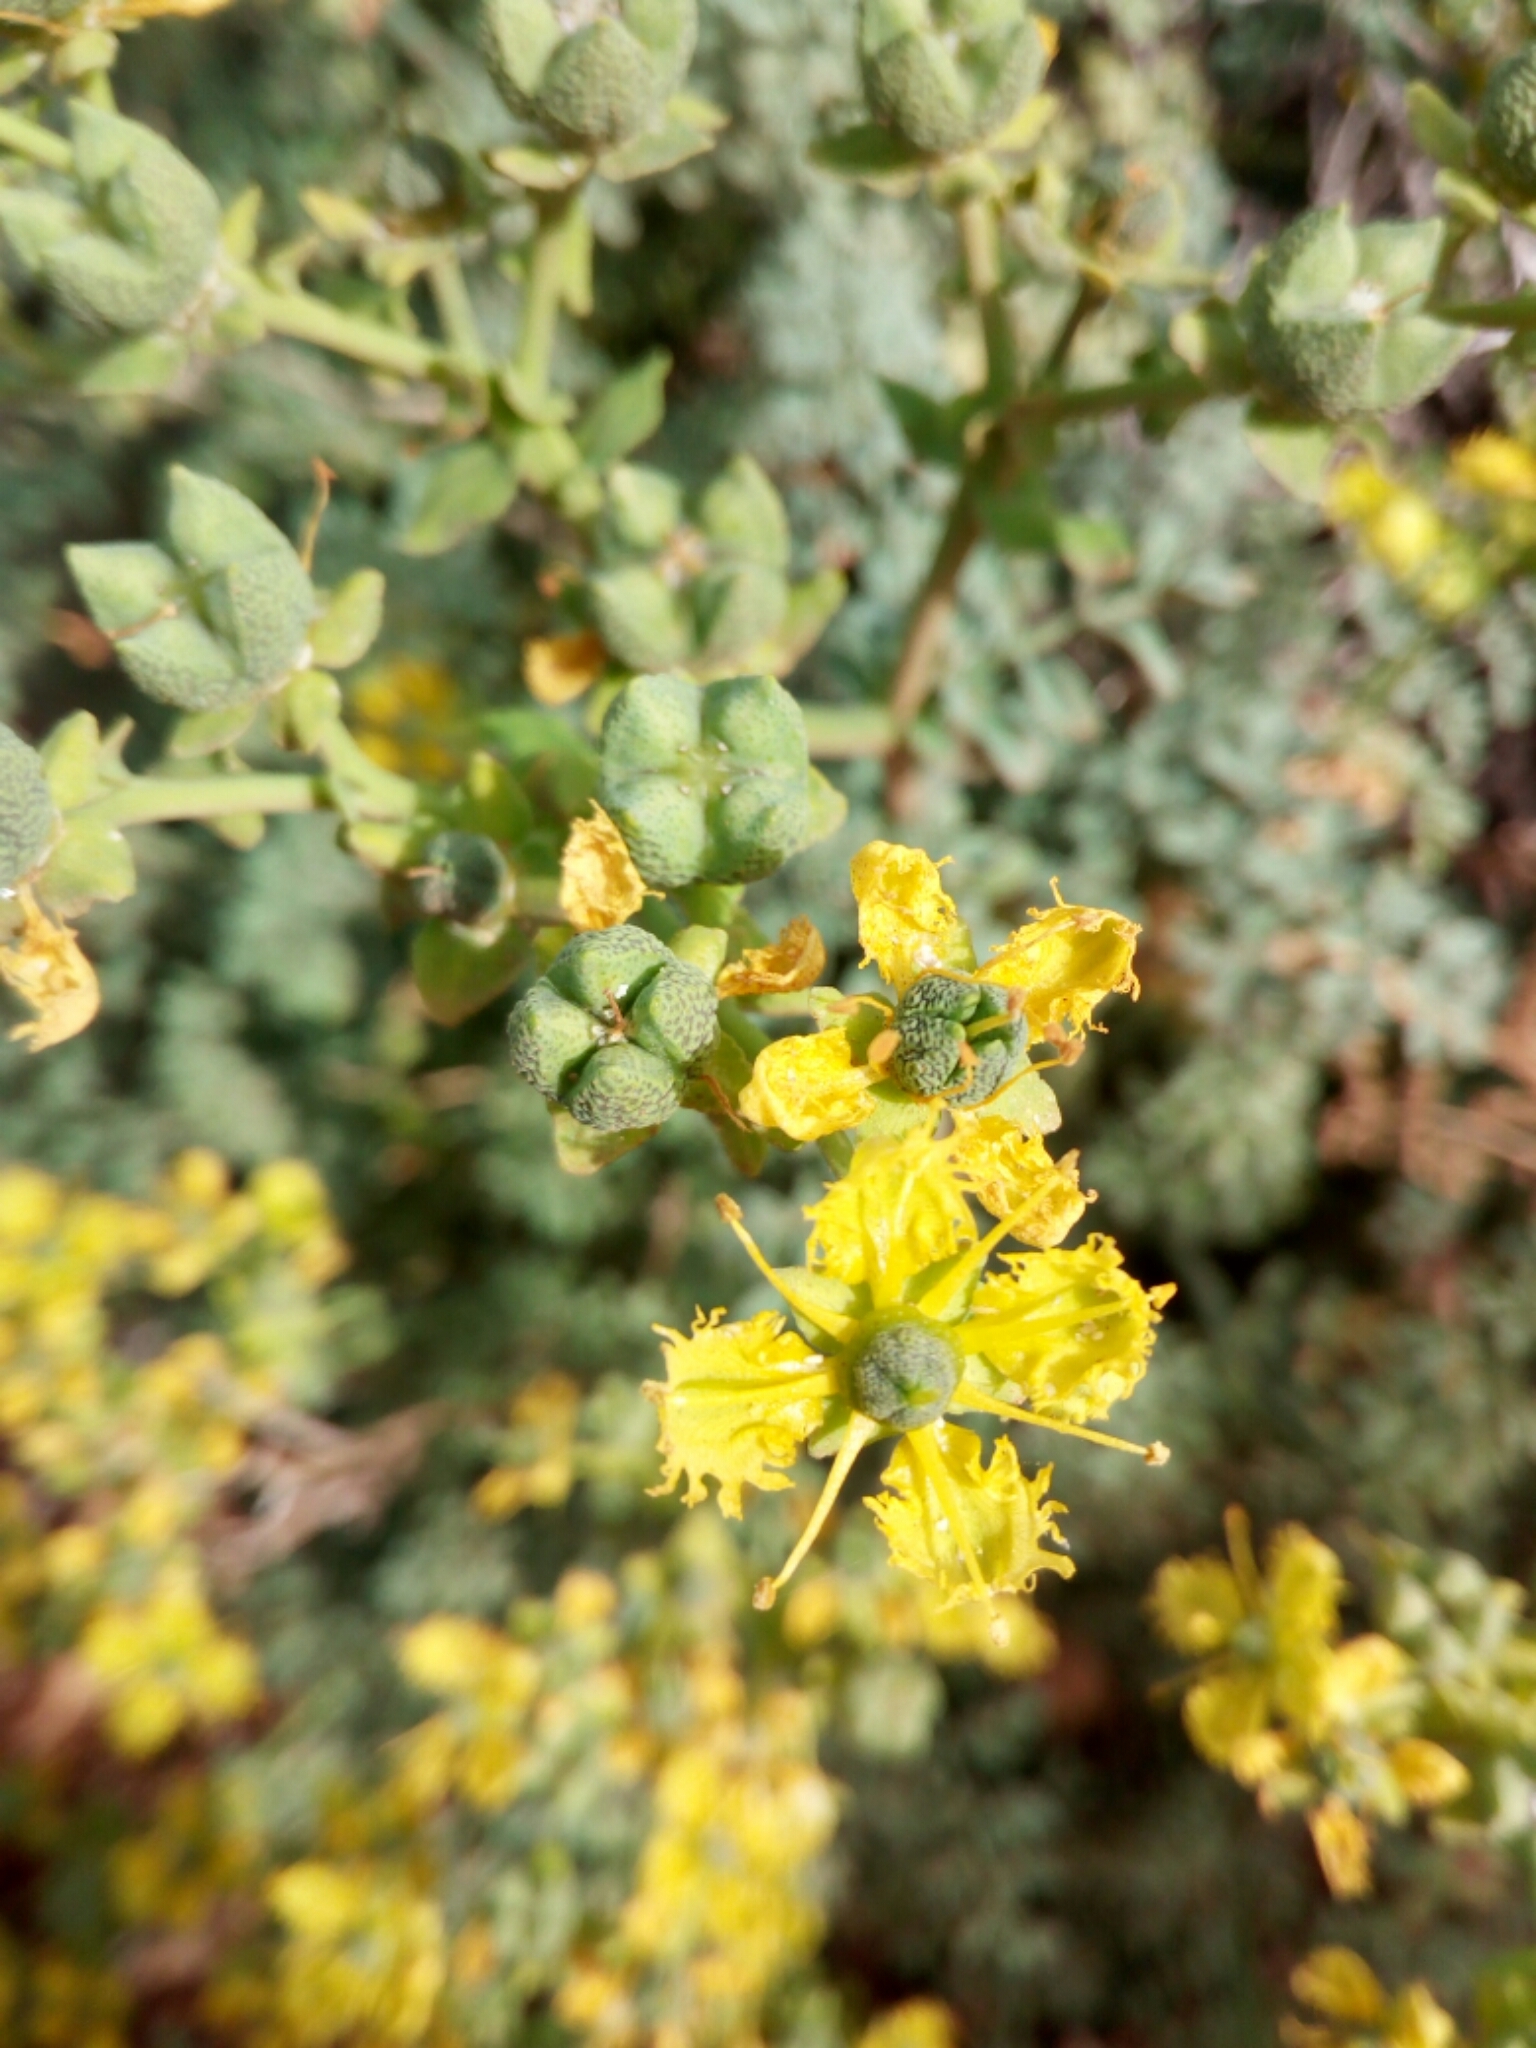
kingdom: Plantae
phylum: Tracheophyta
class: Magnoliopsida
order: Sapindales
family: Rutaceae
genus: Ruta
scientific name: Ruta chalepensis
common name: Fringed rue
